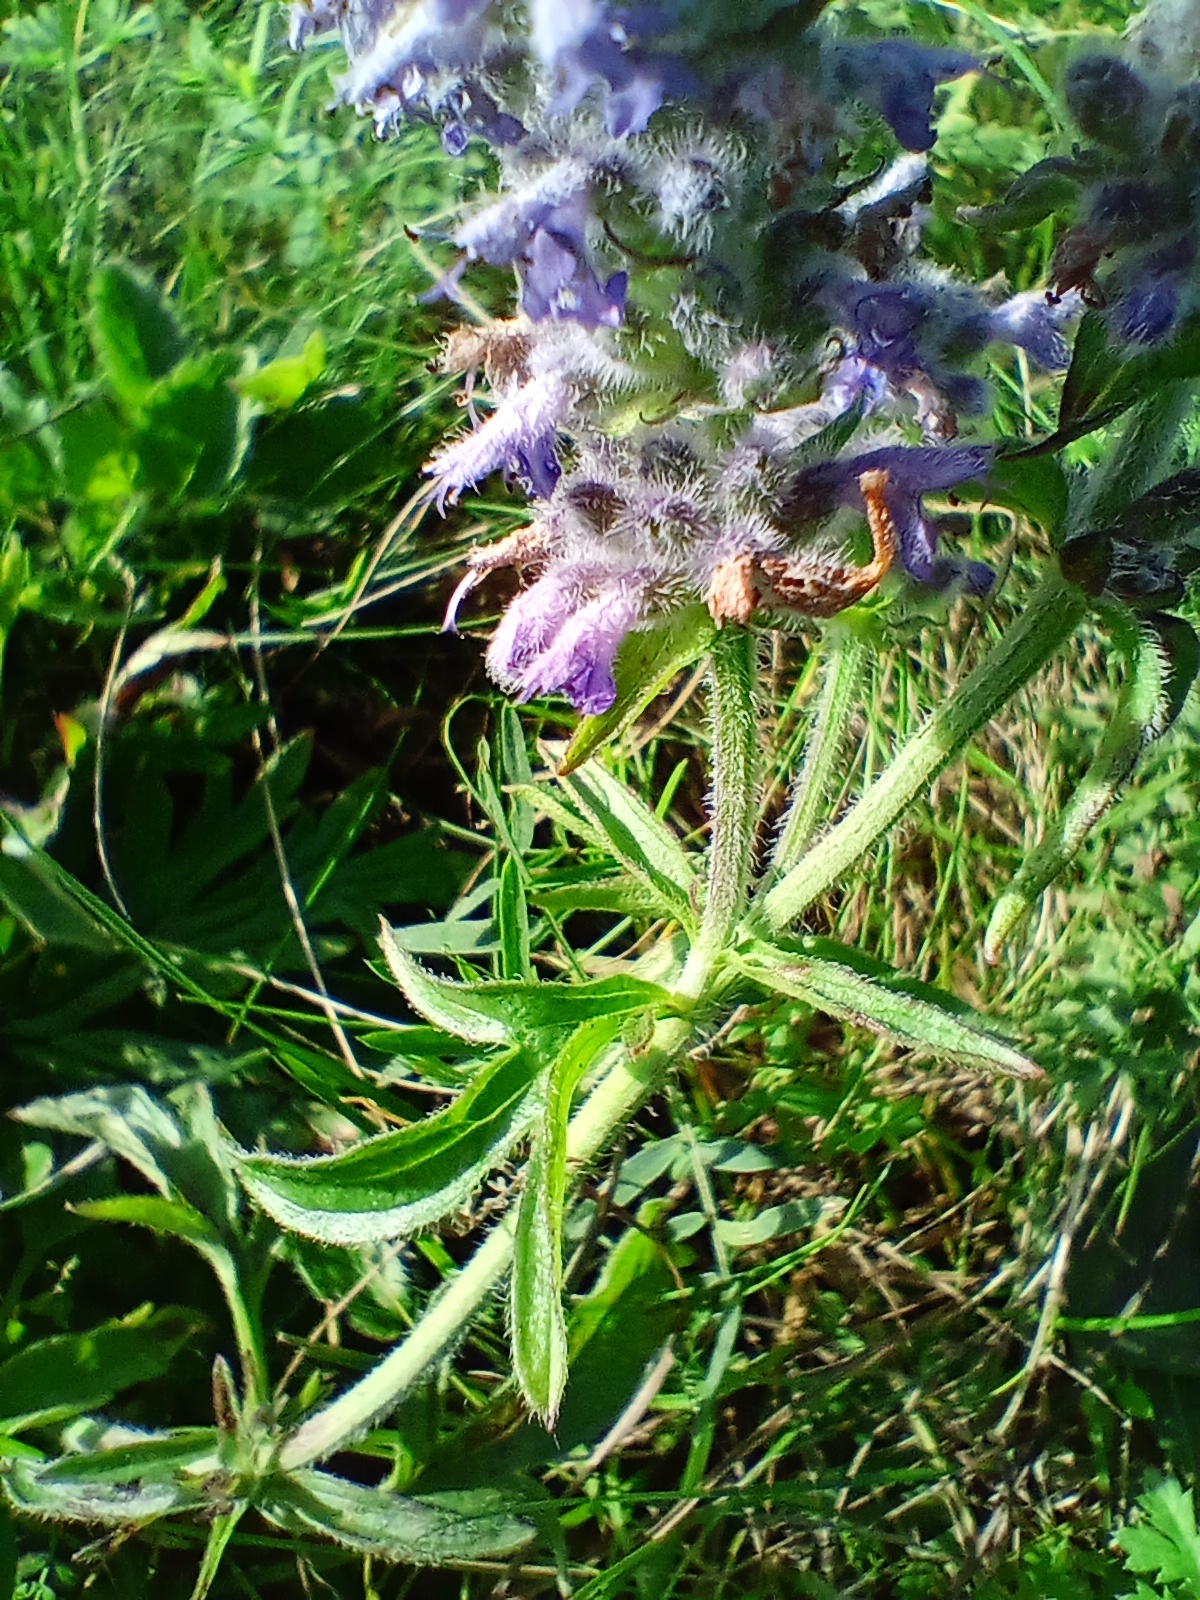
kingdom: Plantae
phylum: Tracheophyta
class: Magnoliopsida
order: Lamiales
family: Orobanchaceae
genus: Orobanche
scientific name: Orobanche coerulescens
